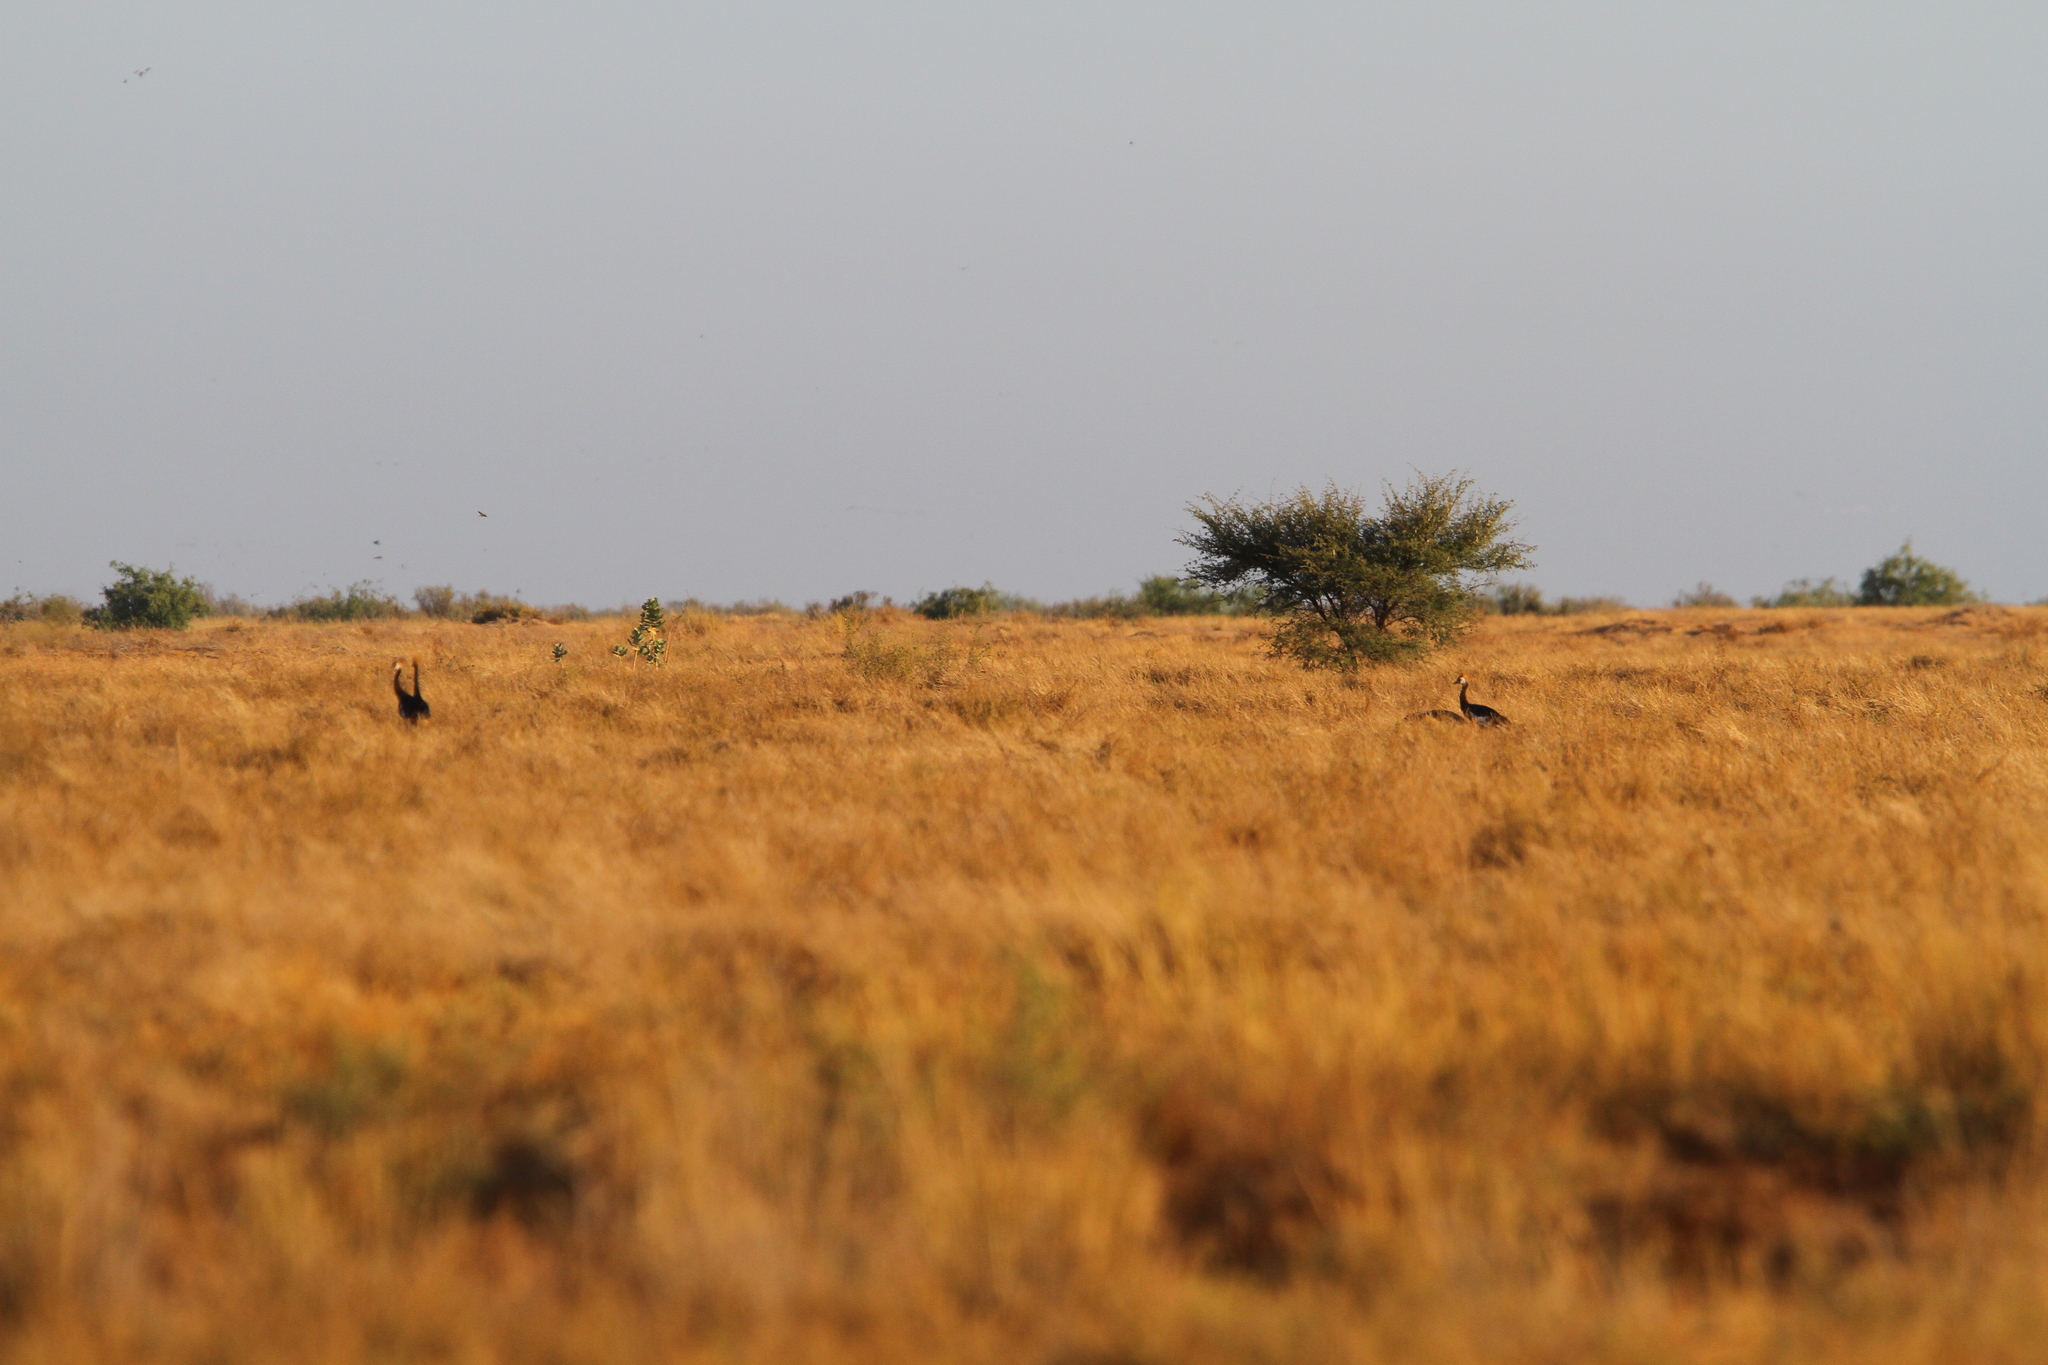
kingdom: Animalia
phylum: Chordata
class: Aves
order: Gruiformes
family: Gruidae
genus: Balearica
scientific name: Balearica pavonina
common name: Black crowned crane
